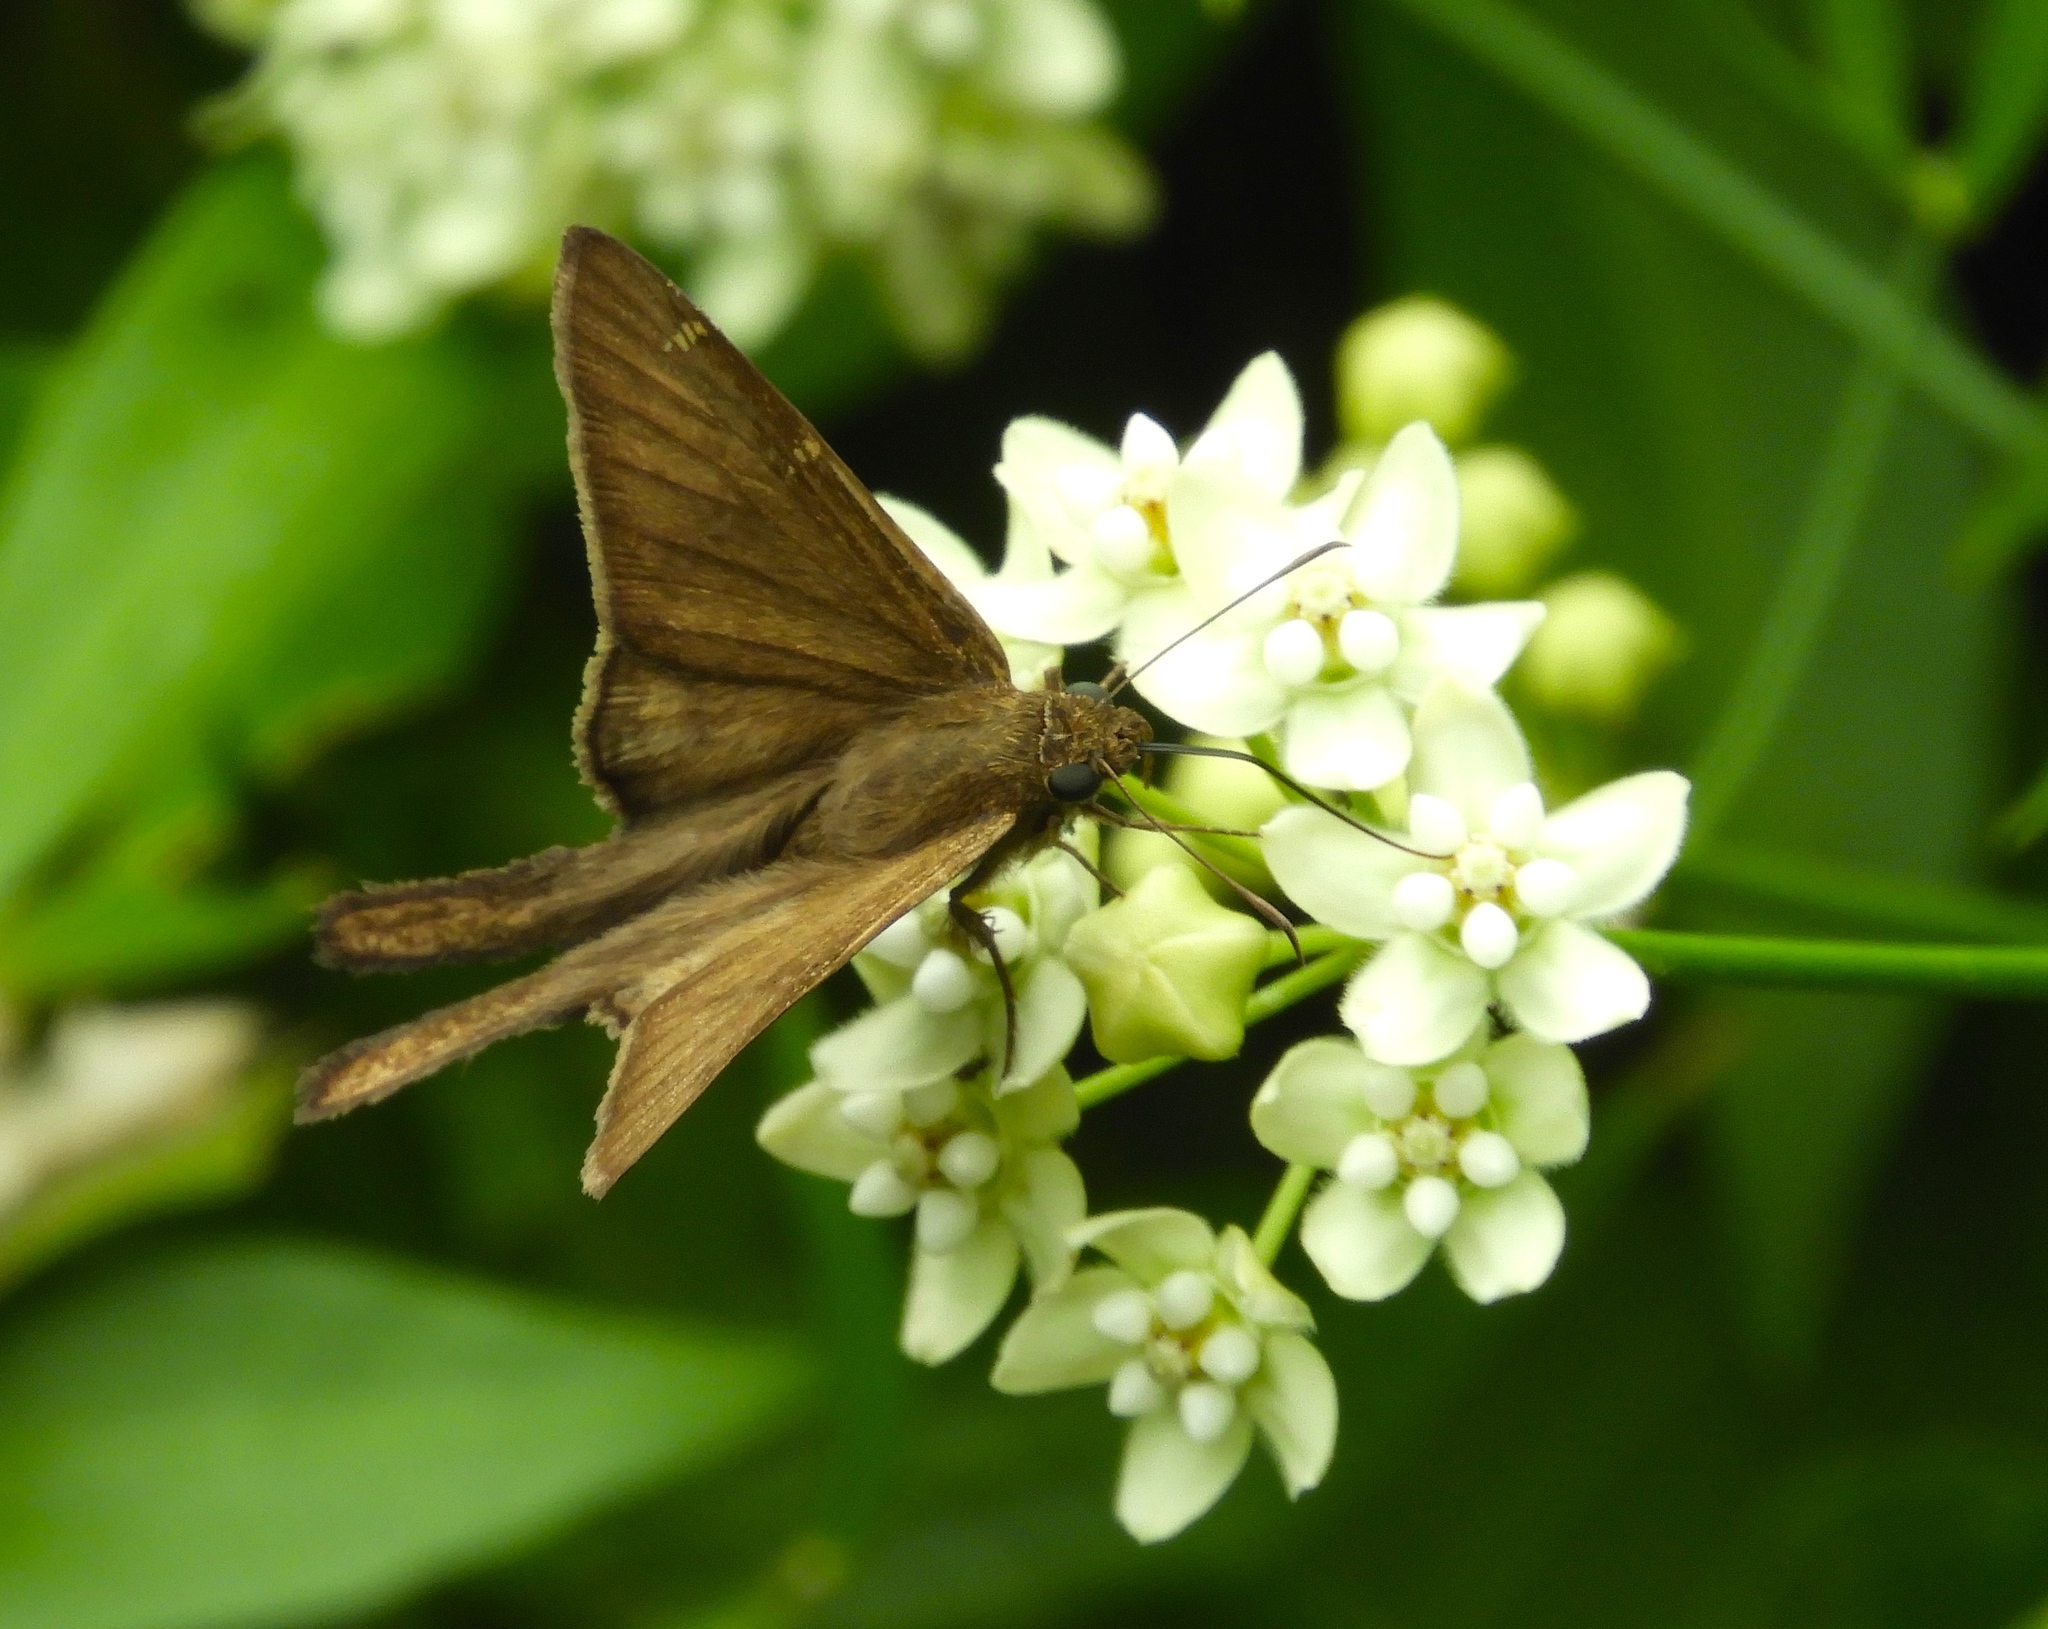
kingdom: Animalia
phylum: Arthropoda
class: Insecta
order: Lepidoptera
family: Hesperiidae
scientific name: Hesperiidae
